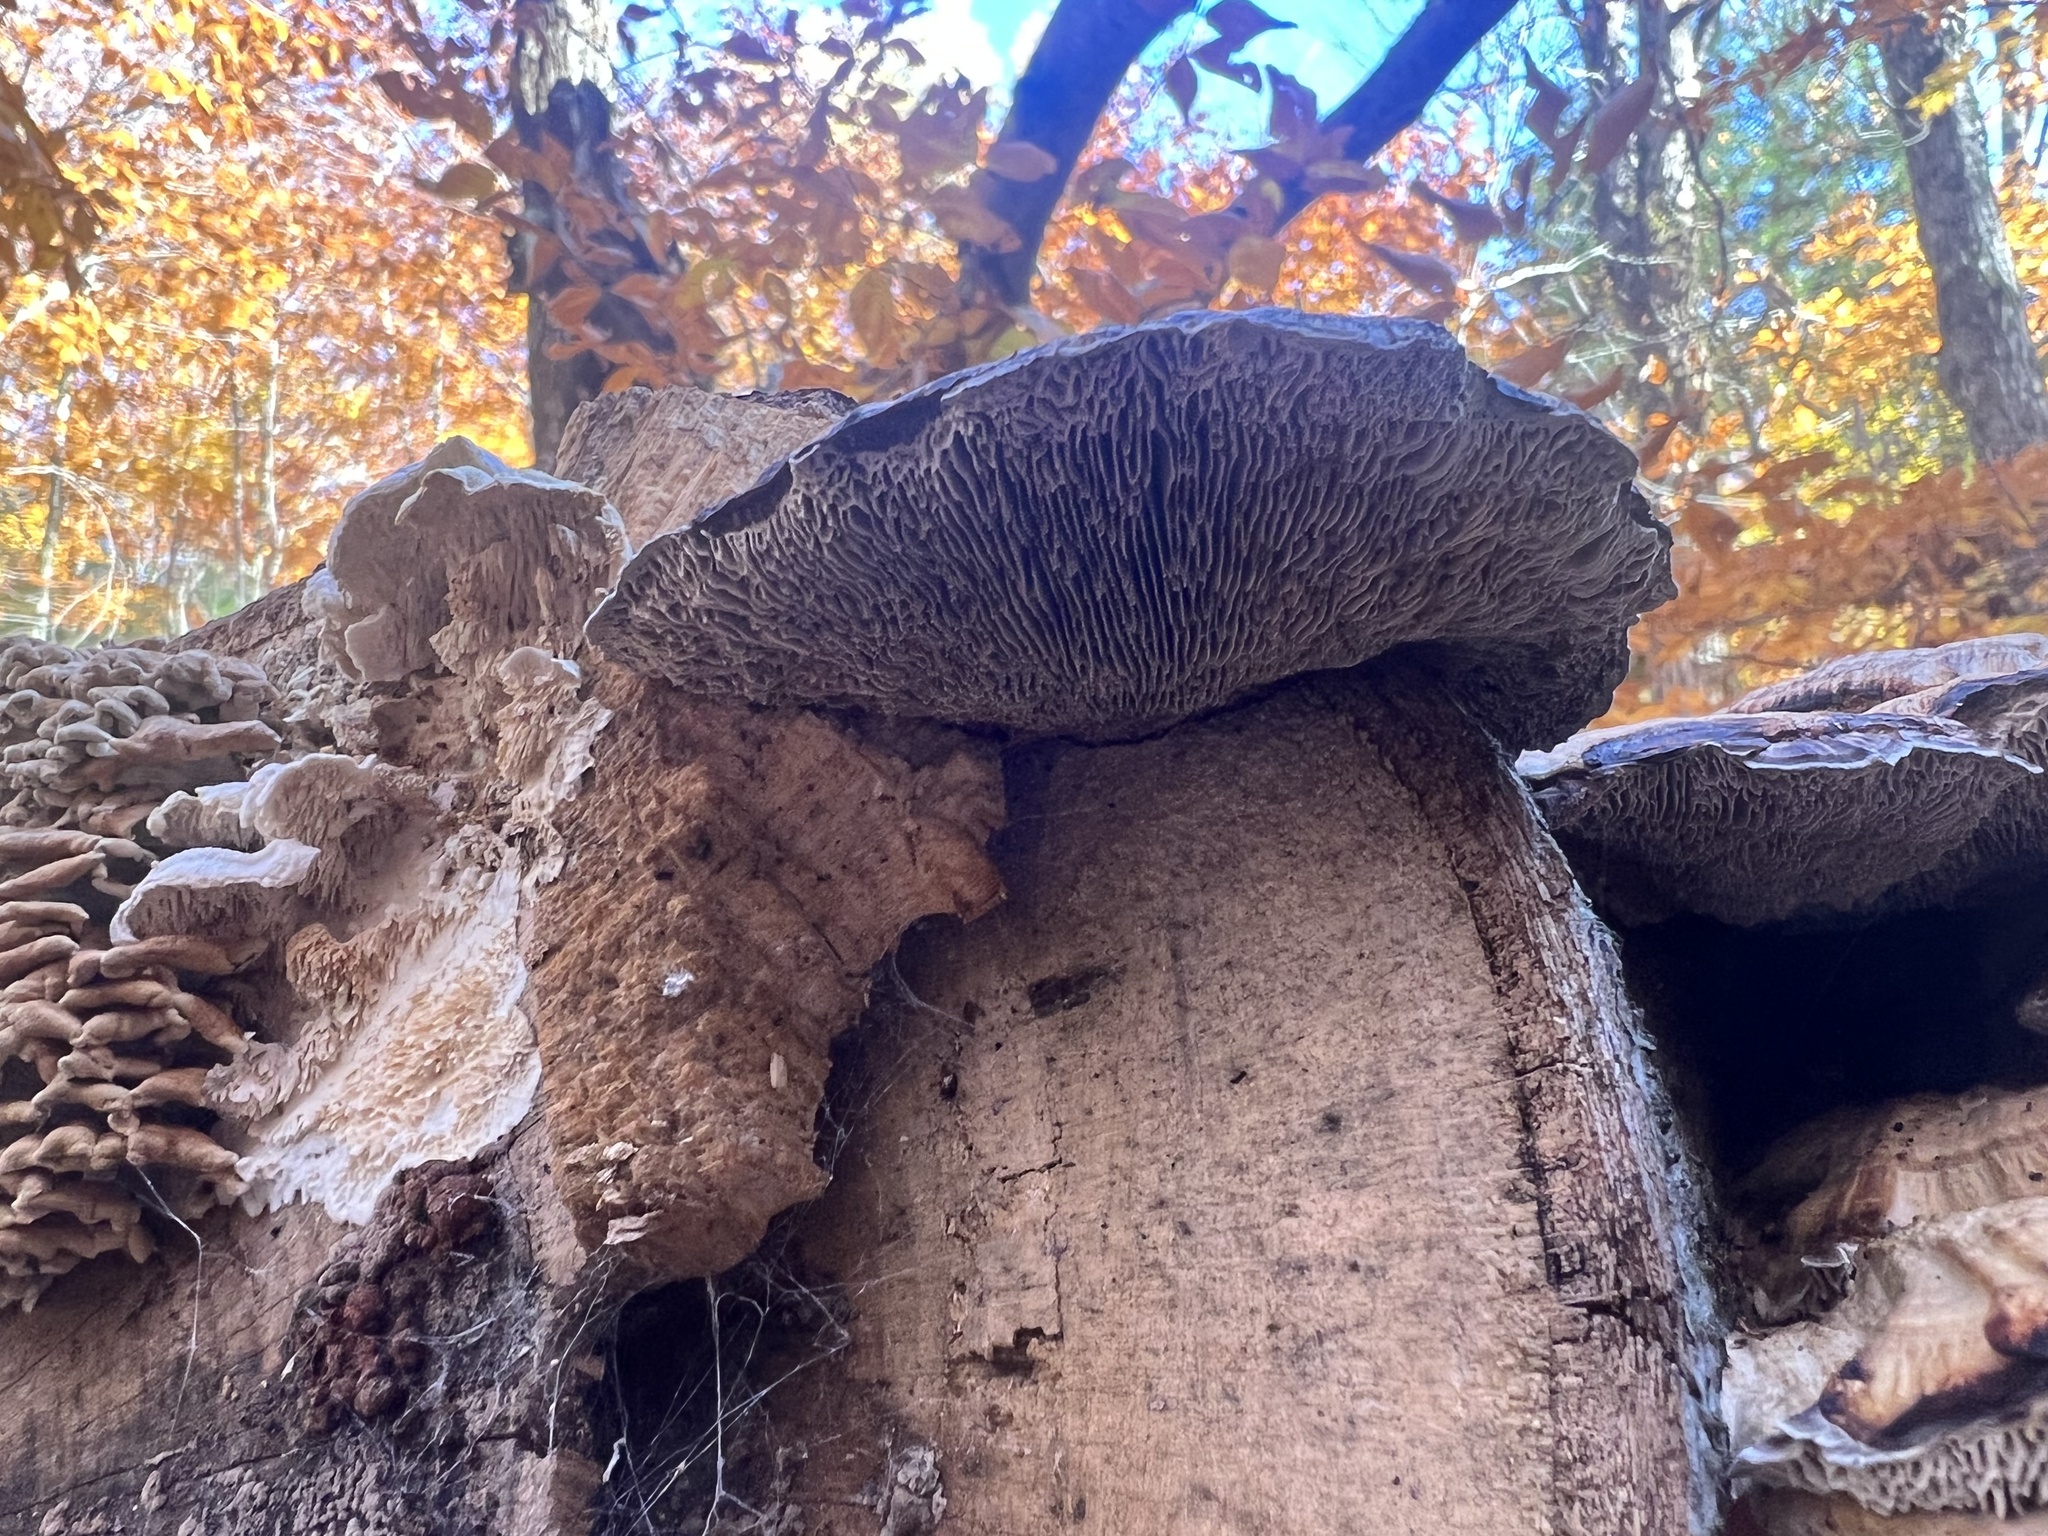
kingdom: Fungi
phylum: Basidiomycota
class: Agaricomycetes
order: Polyporales
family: Polyporaceae
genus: Daedaleopsis
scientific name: Daedaleopsis confragosa
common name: Blushing bracket
